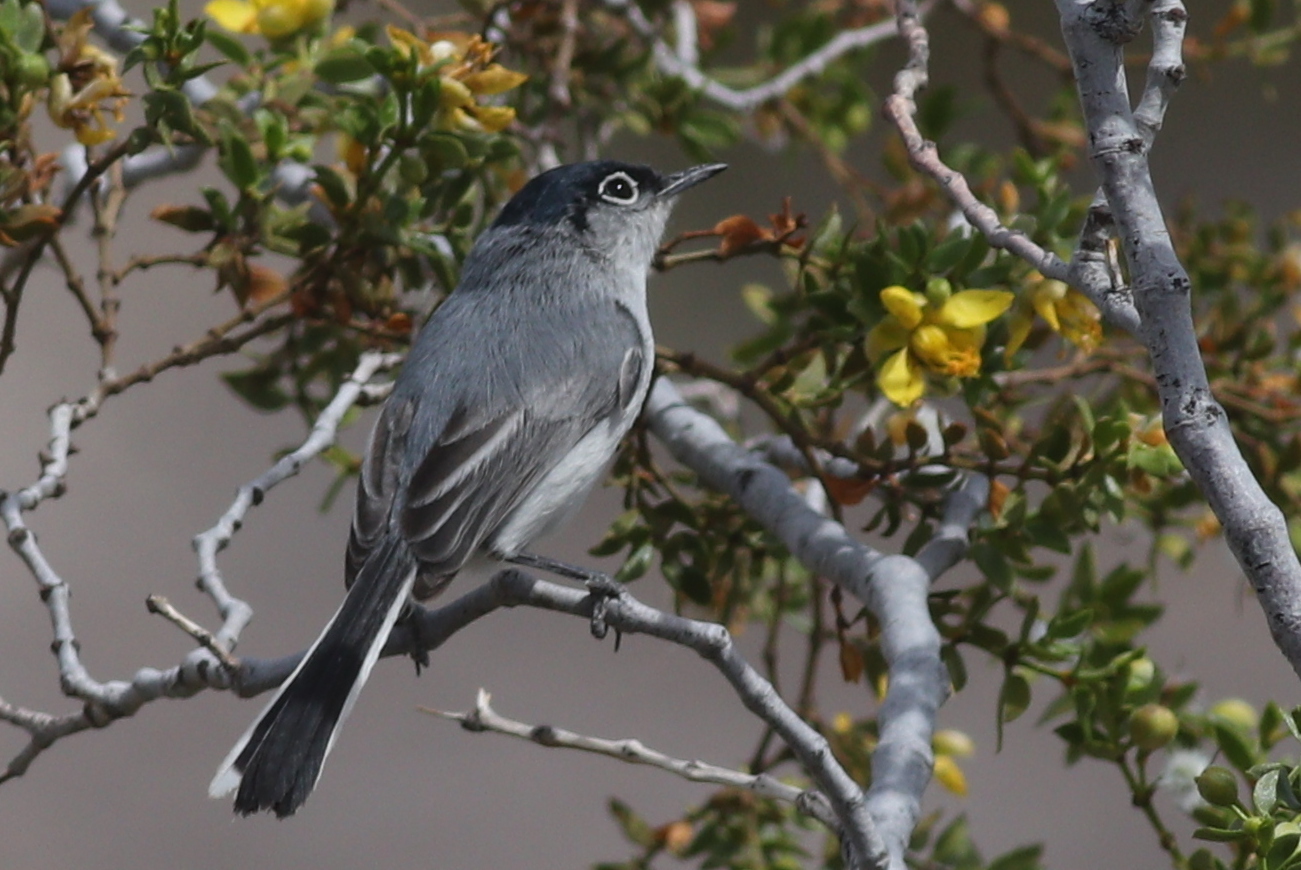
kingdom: Animalia
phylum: Chordata
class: Aves
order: Passeriformes
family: Polioptilidae
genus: Polioptila
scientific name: Polioptila melanura
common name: Black-tailed gnatcatcher
